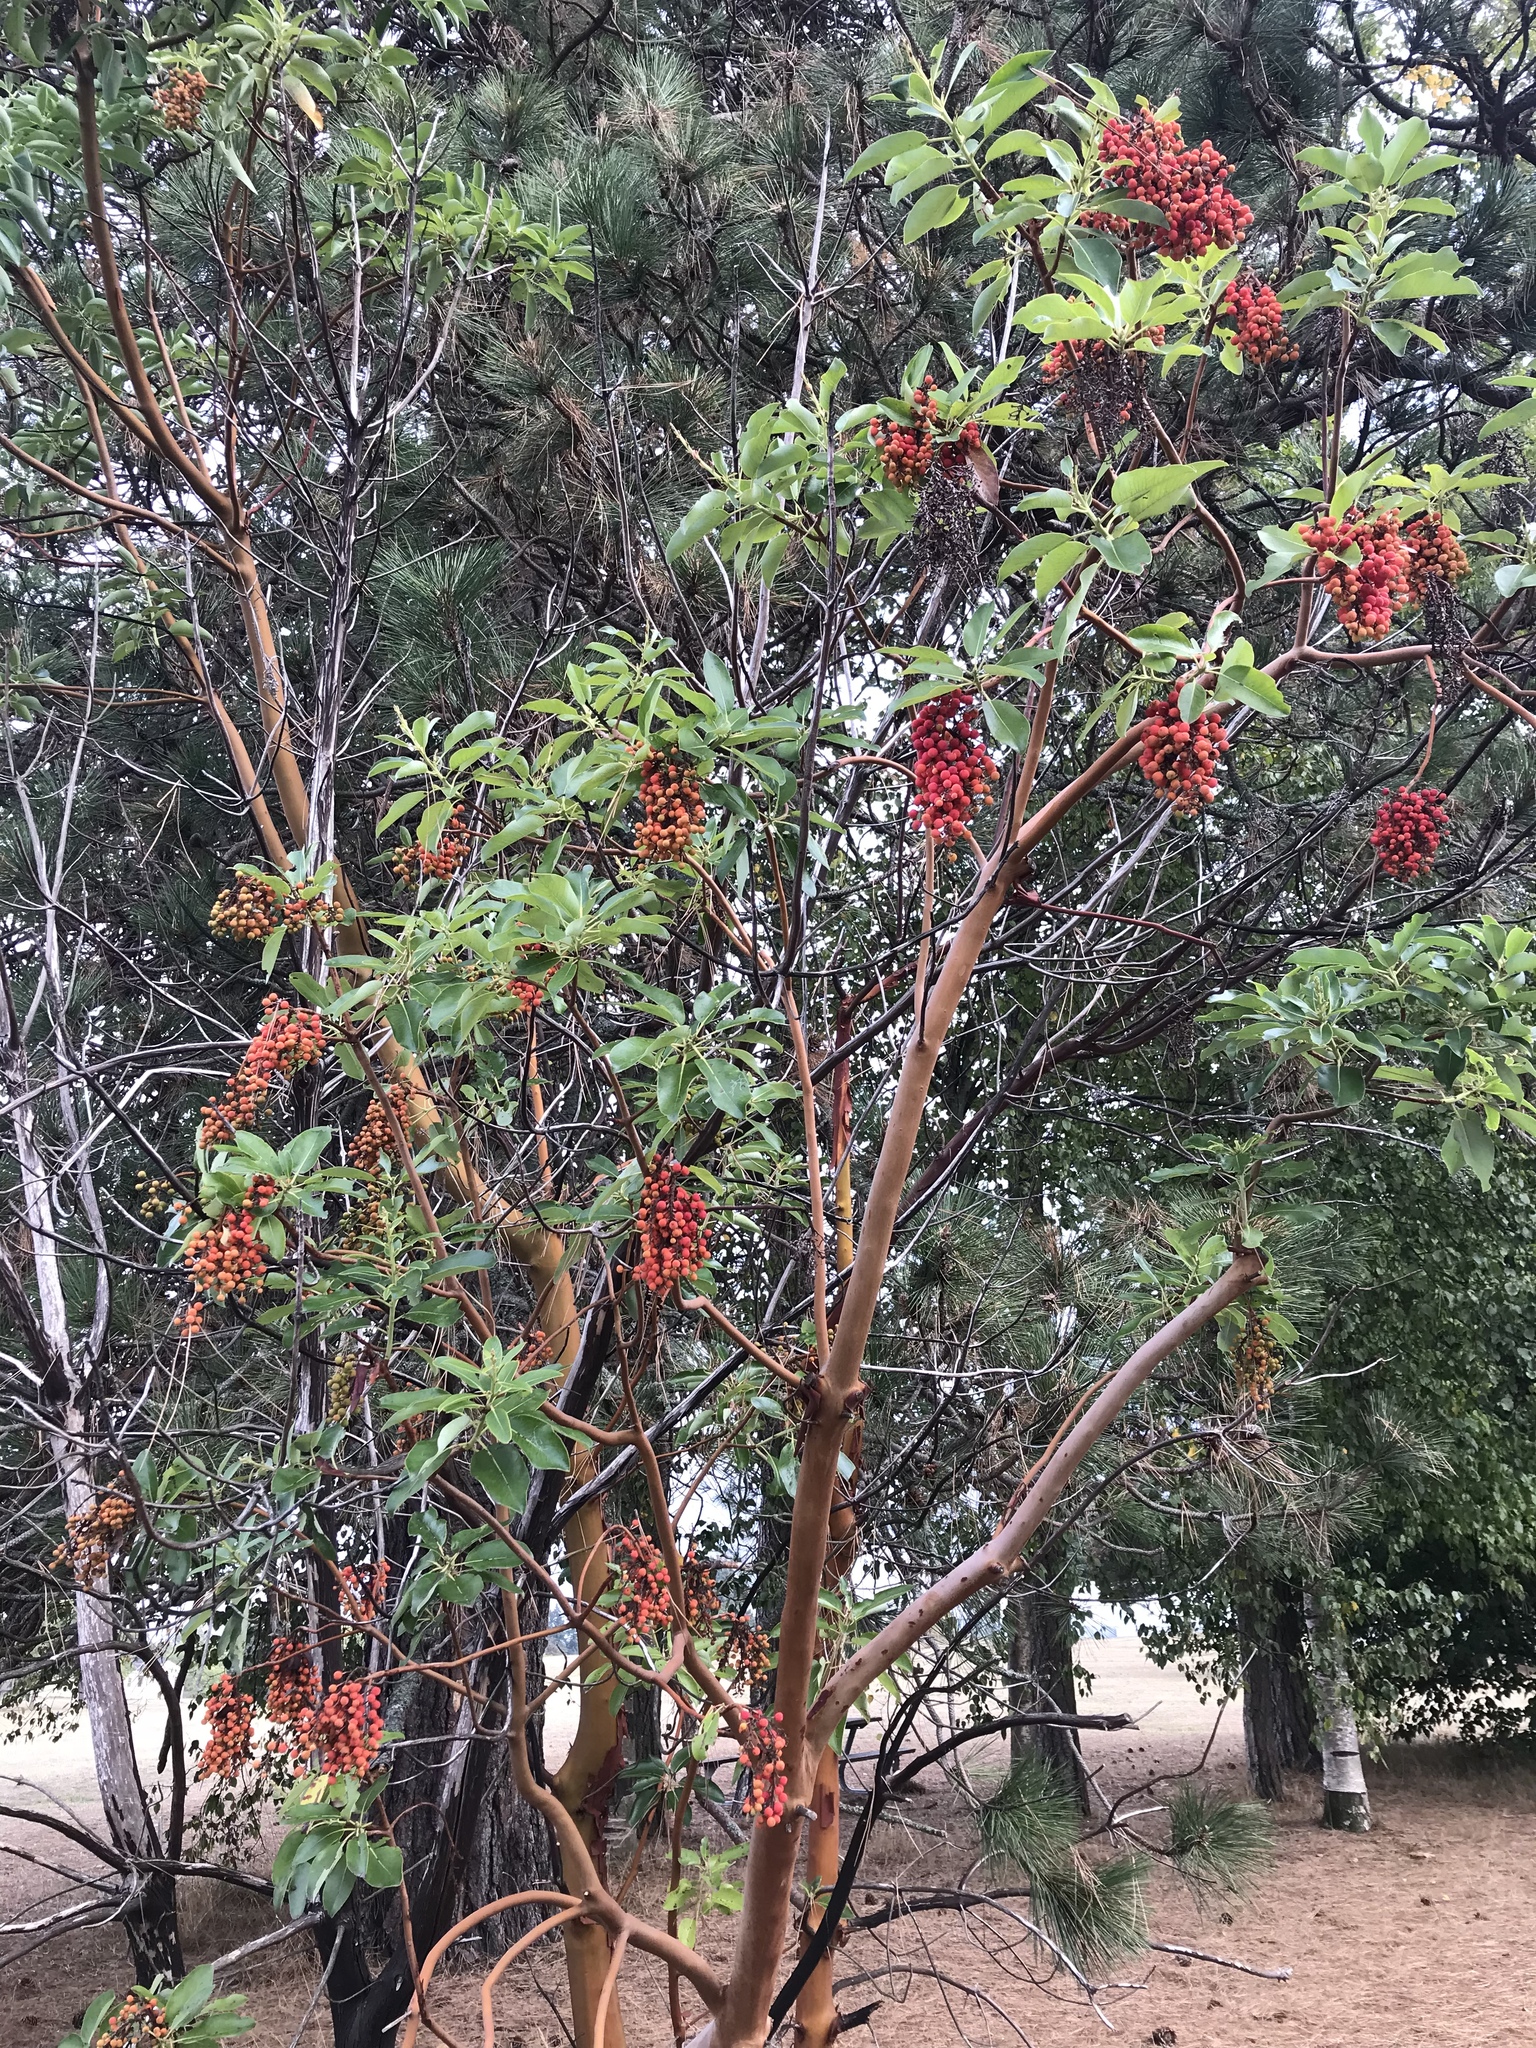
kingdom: Plantae
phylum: Tracheophyta
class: Magnoliopsida
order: Ericales
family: Ericaceae
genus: Arbutus
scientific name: Arbutus menziesii
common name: Pacific madrone
